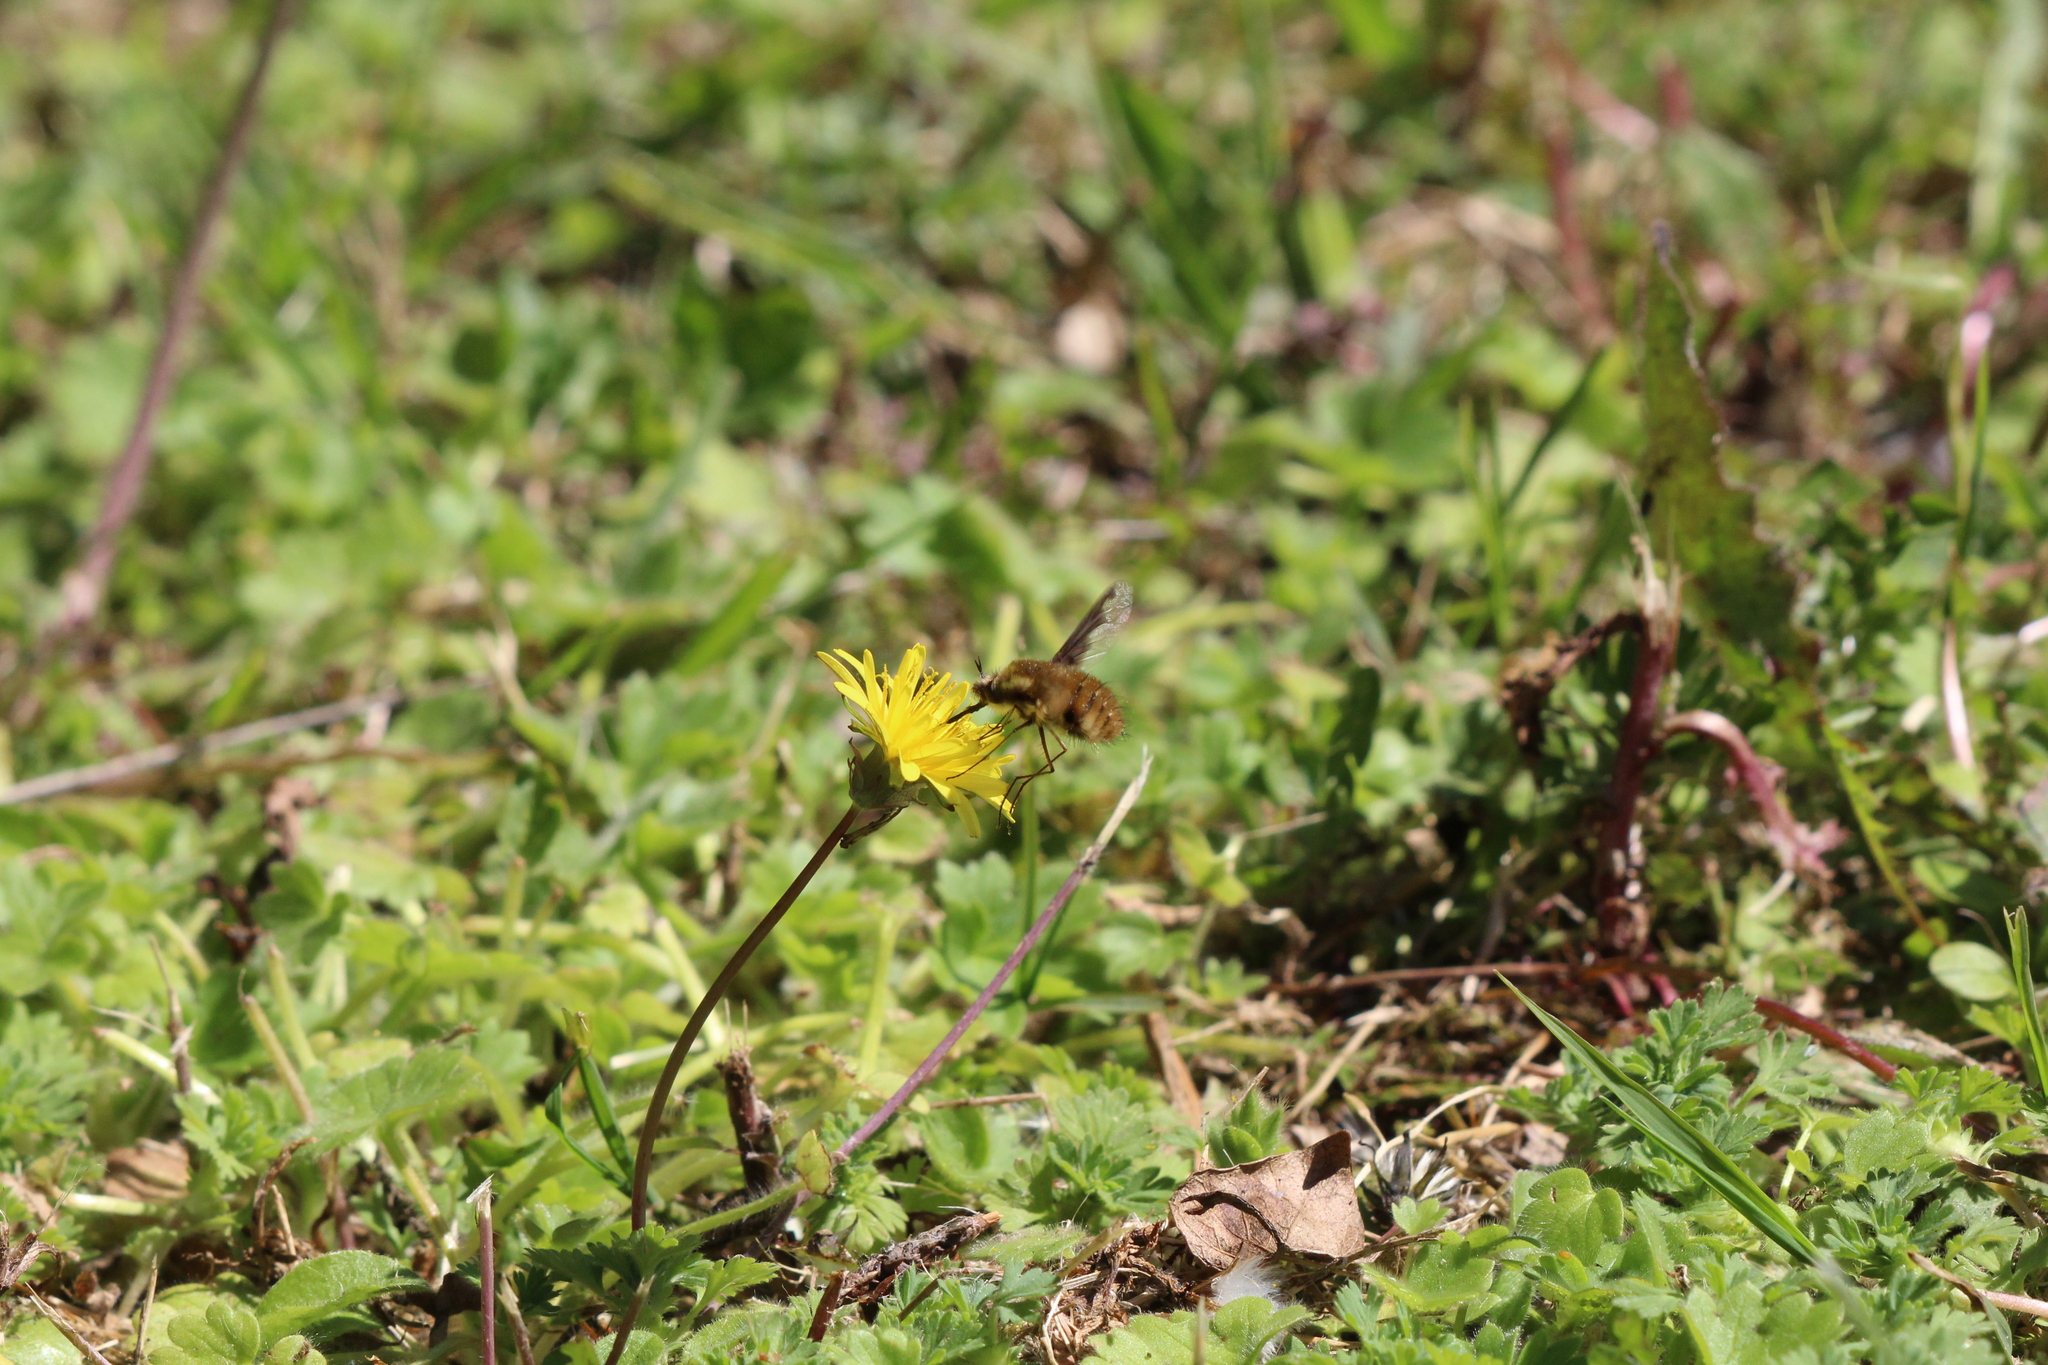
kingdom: Animalia
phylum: Arthropoda
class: Insecta
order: Diptera
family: Bombyliidae
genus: Bombylius
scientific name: Bombylius major
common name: Bee fly
